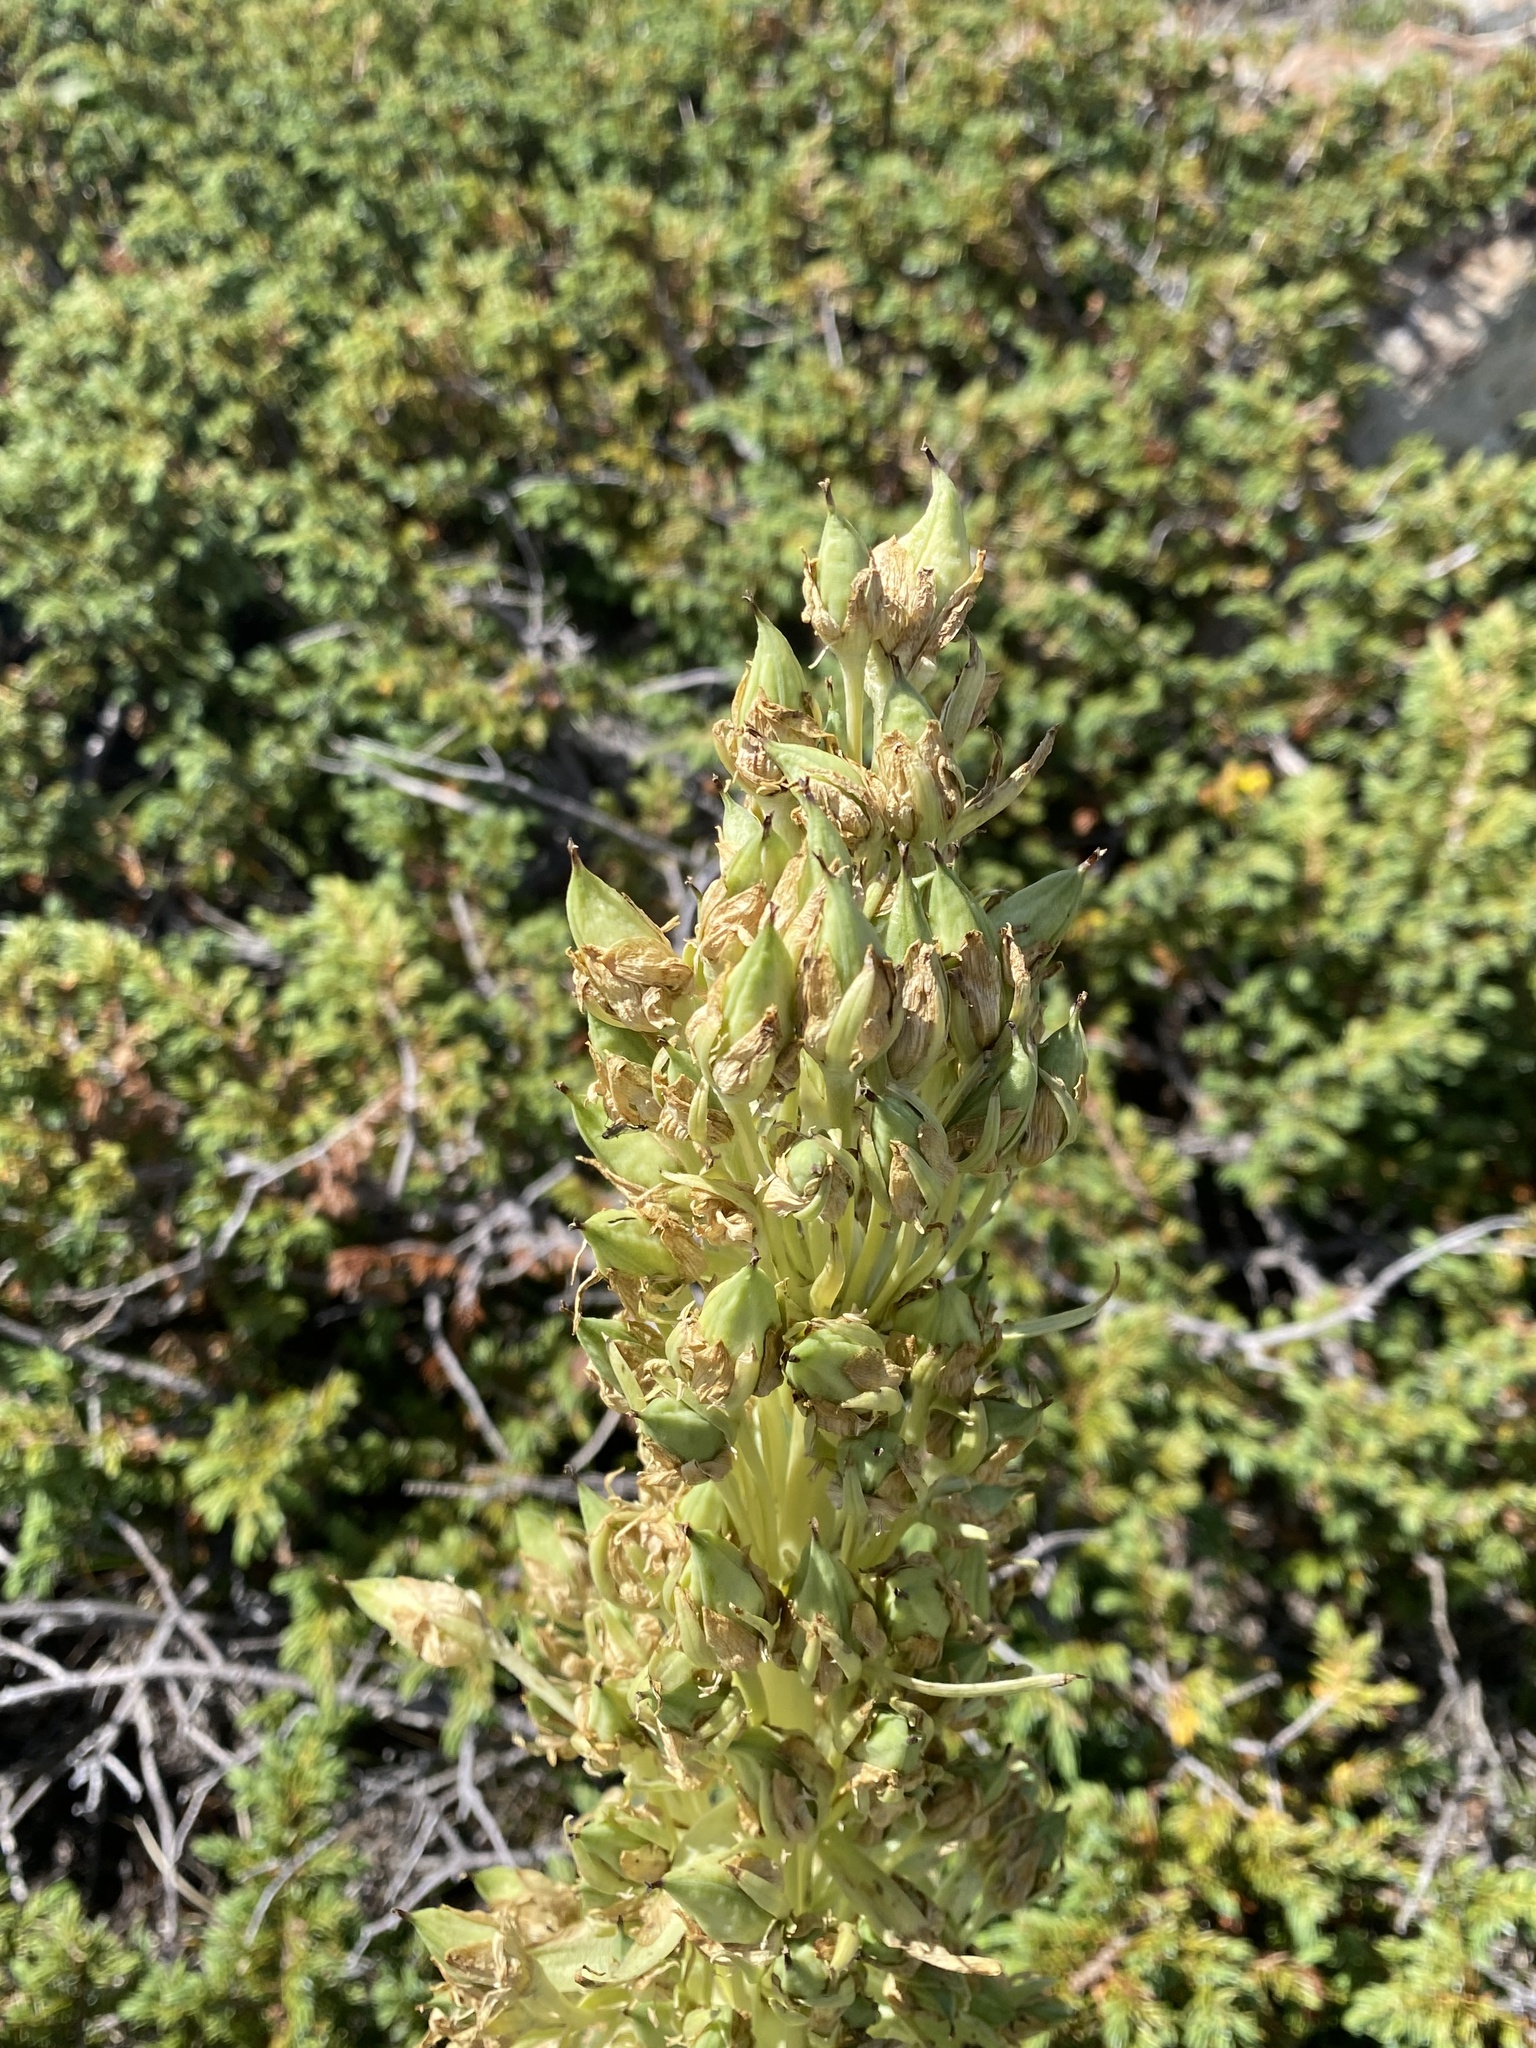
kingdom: Plantae
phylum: Tracheophyta
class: Magnoliopsida
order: Gentianales
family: Gentianaceae
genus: Frasera
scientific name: Frasera speciosa
